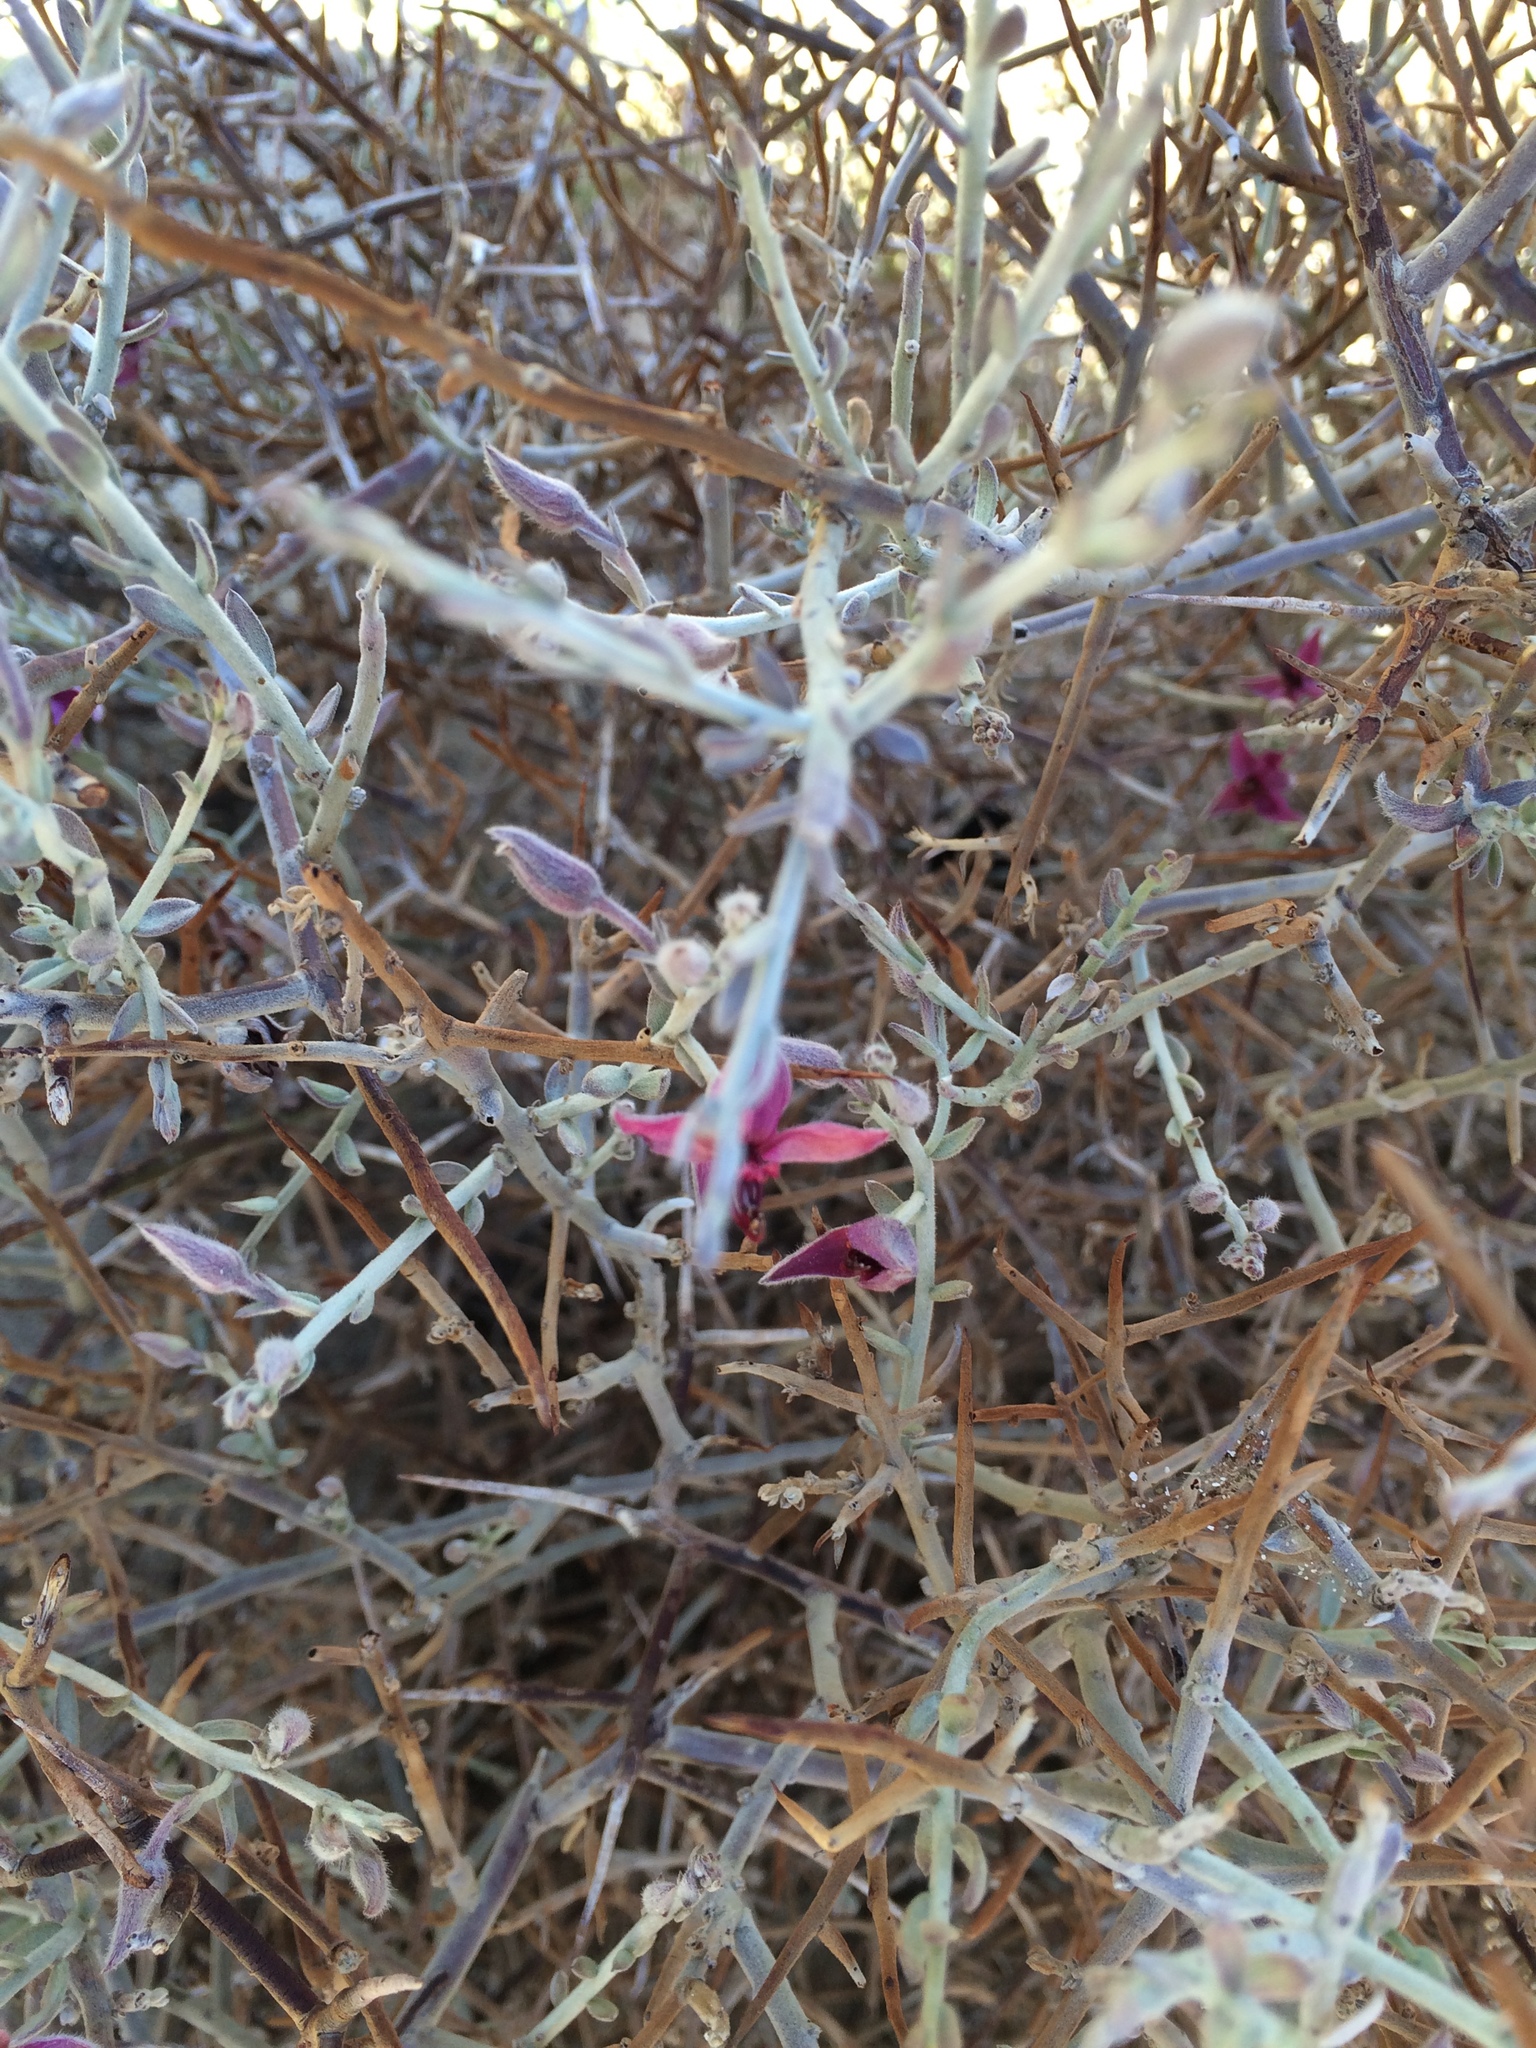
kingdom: Plantae
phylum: Tracheophyta
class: Magnoliopsida
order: Zygophyllales
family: Krameriaceae
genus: Krameria
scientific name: Krameria bicolor
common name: White ratany
